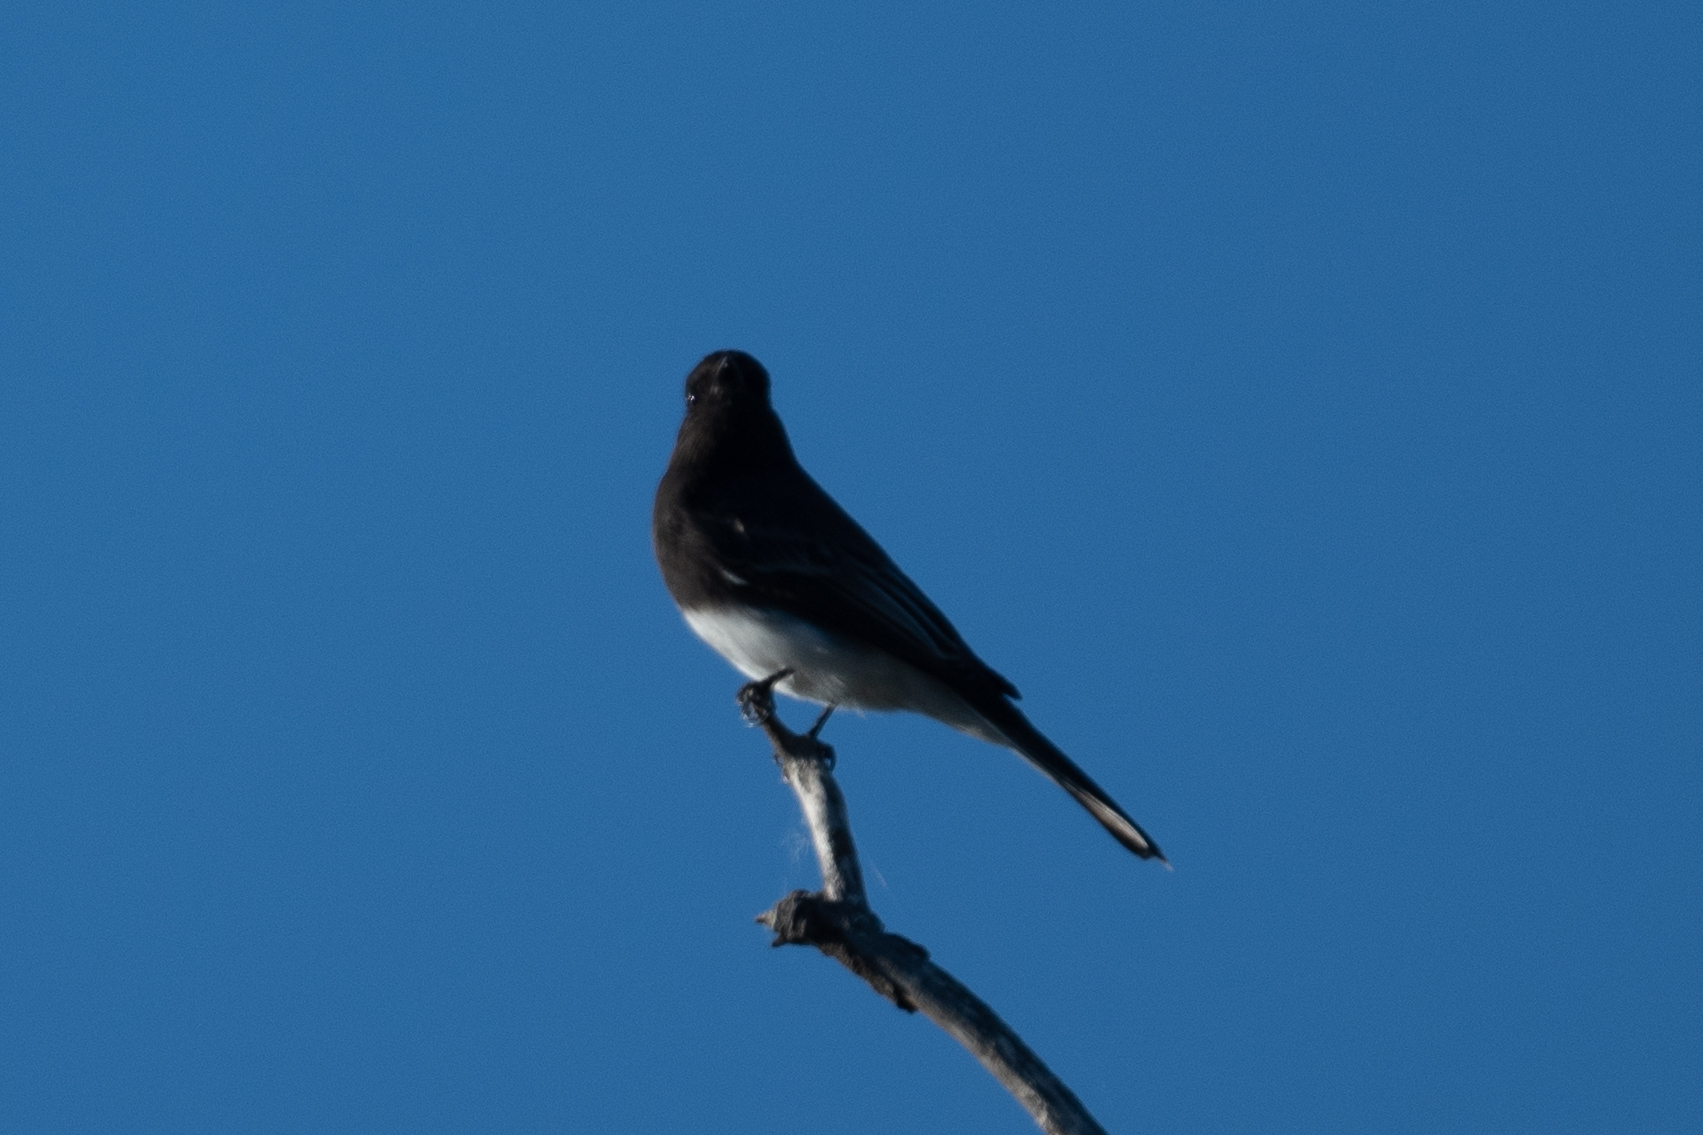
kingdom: Animalia
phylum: Chordata
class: Aves
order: Passeriformes
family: Tyrannidae
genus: Sayornis
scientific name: Sayornis nigricans
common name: Black phoebe
